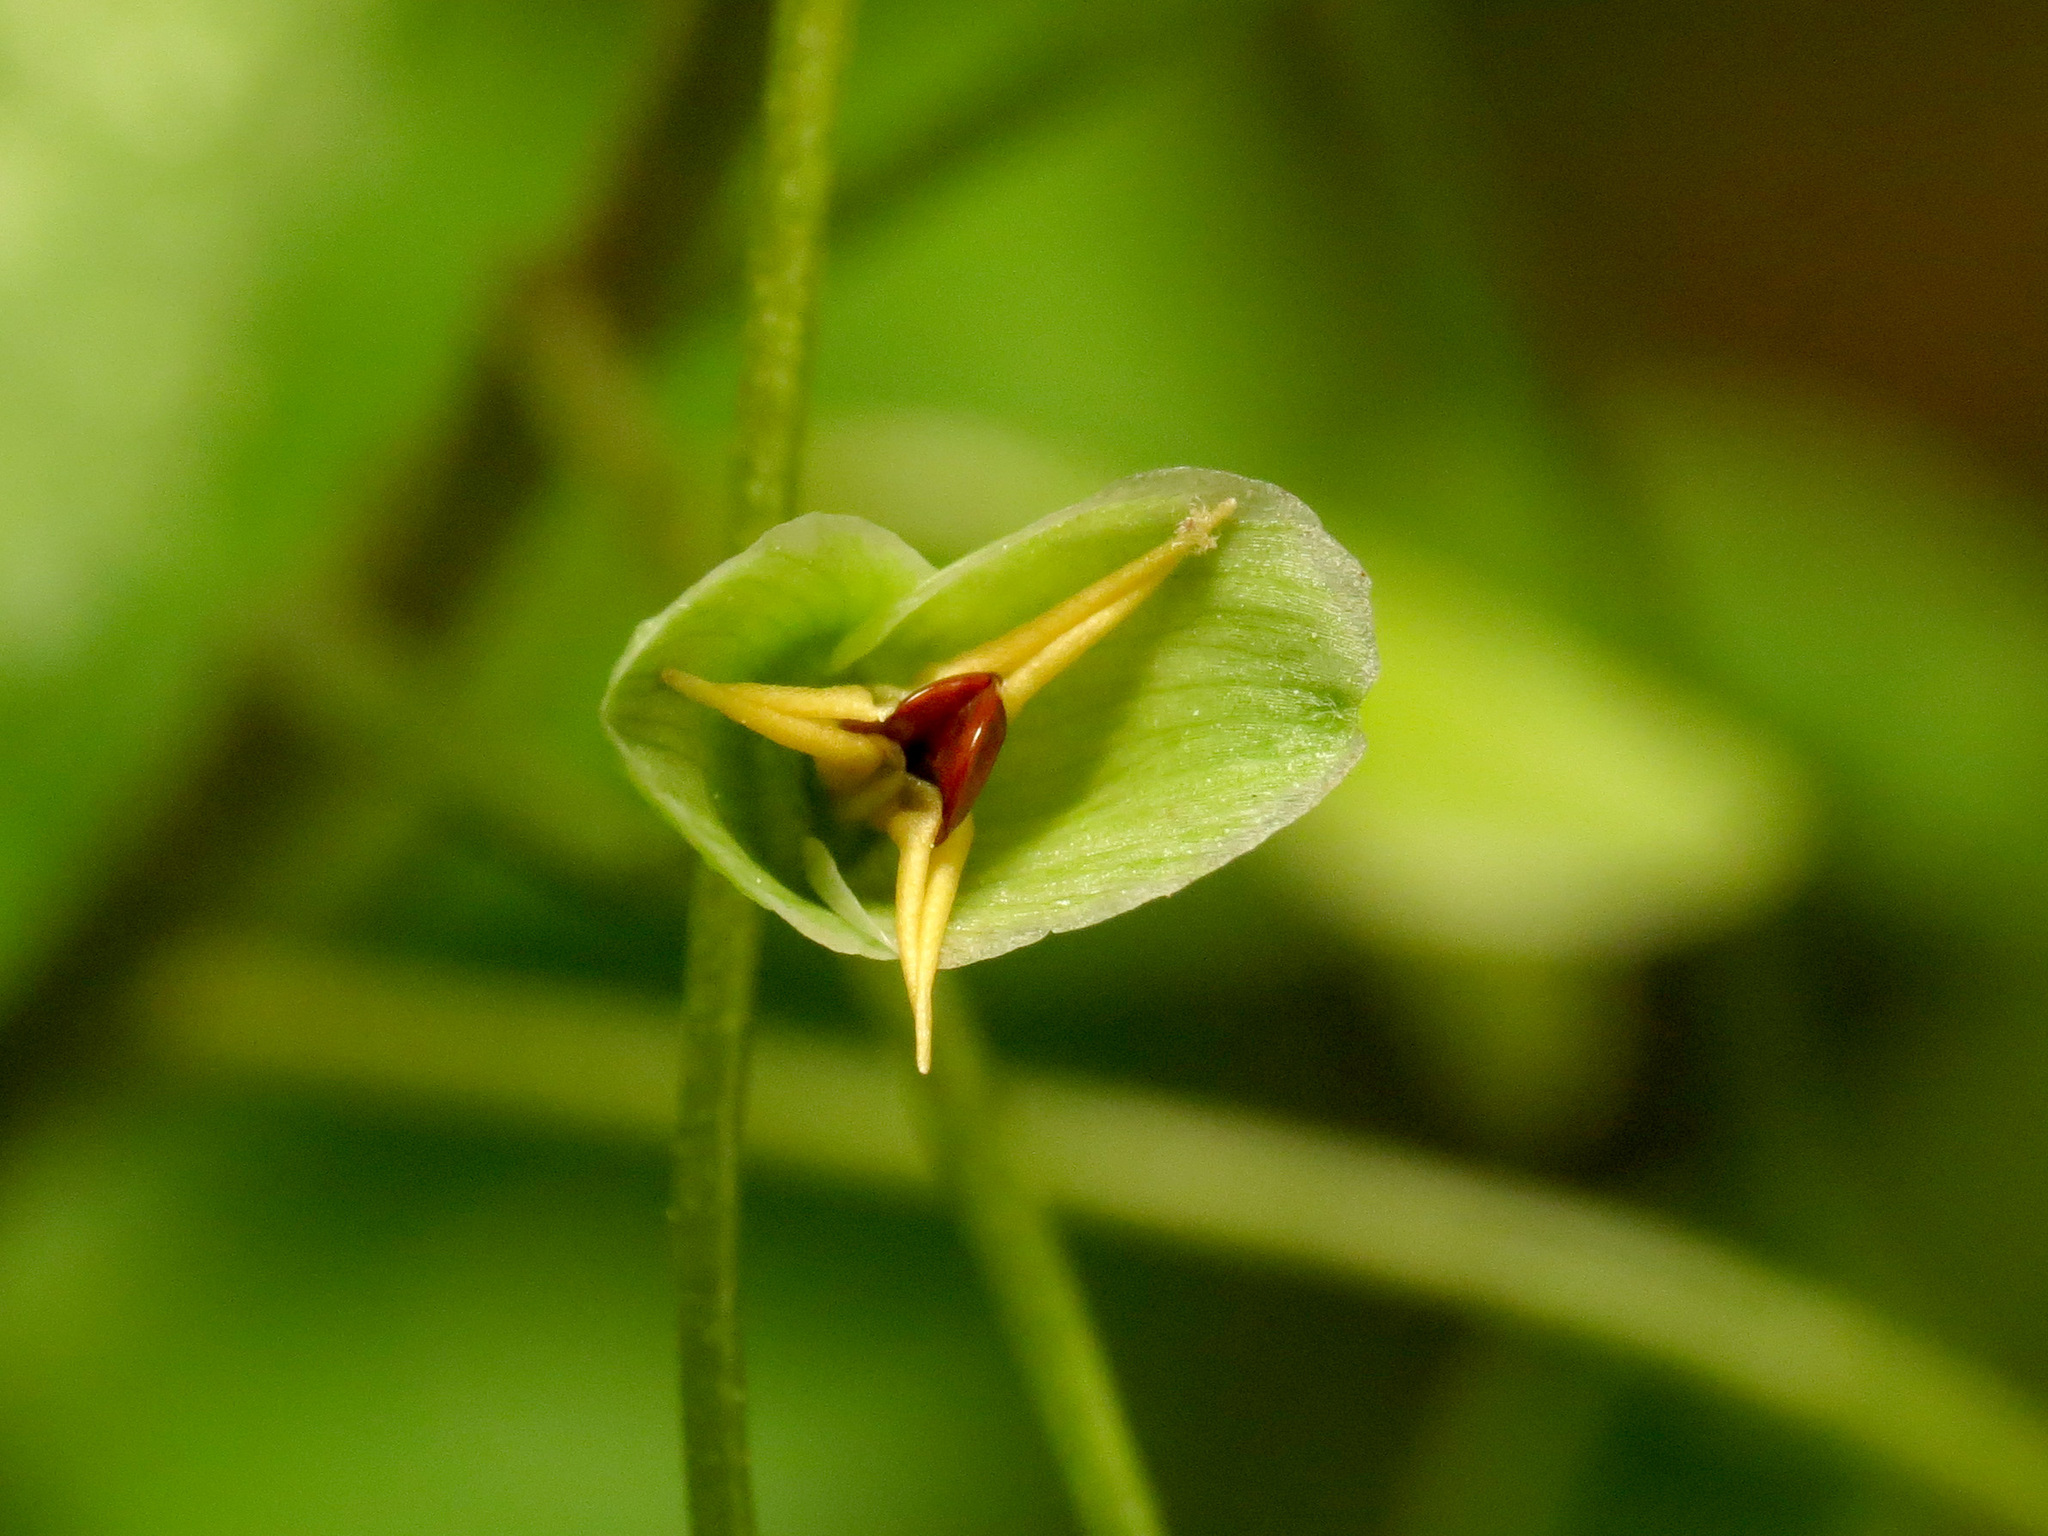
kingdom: Plantae
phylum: Tracheophyta
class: Magnoliopsida
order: Caryophyllales
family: Montiaceae
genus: Claytonia
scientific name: Claytonia virginica
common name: Virginia springbeauty
